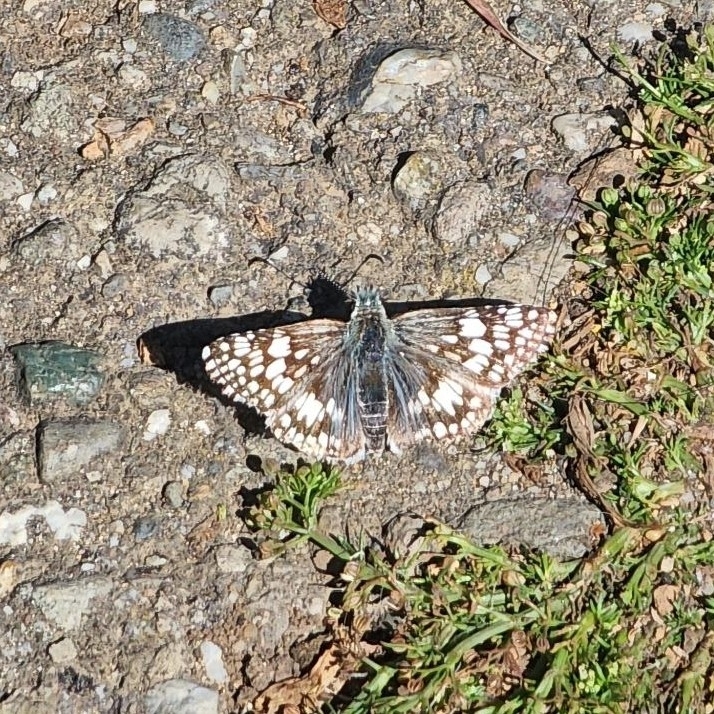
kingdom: Animalia
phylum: Arthropoda
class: Insecta
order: Lepidoptera
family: Hesperiidae
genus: Burnsius
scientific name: Burnsius communis
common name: Common checkered-skipper
